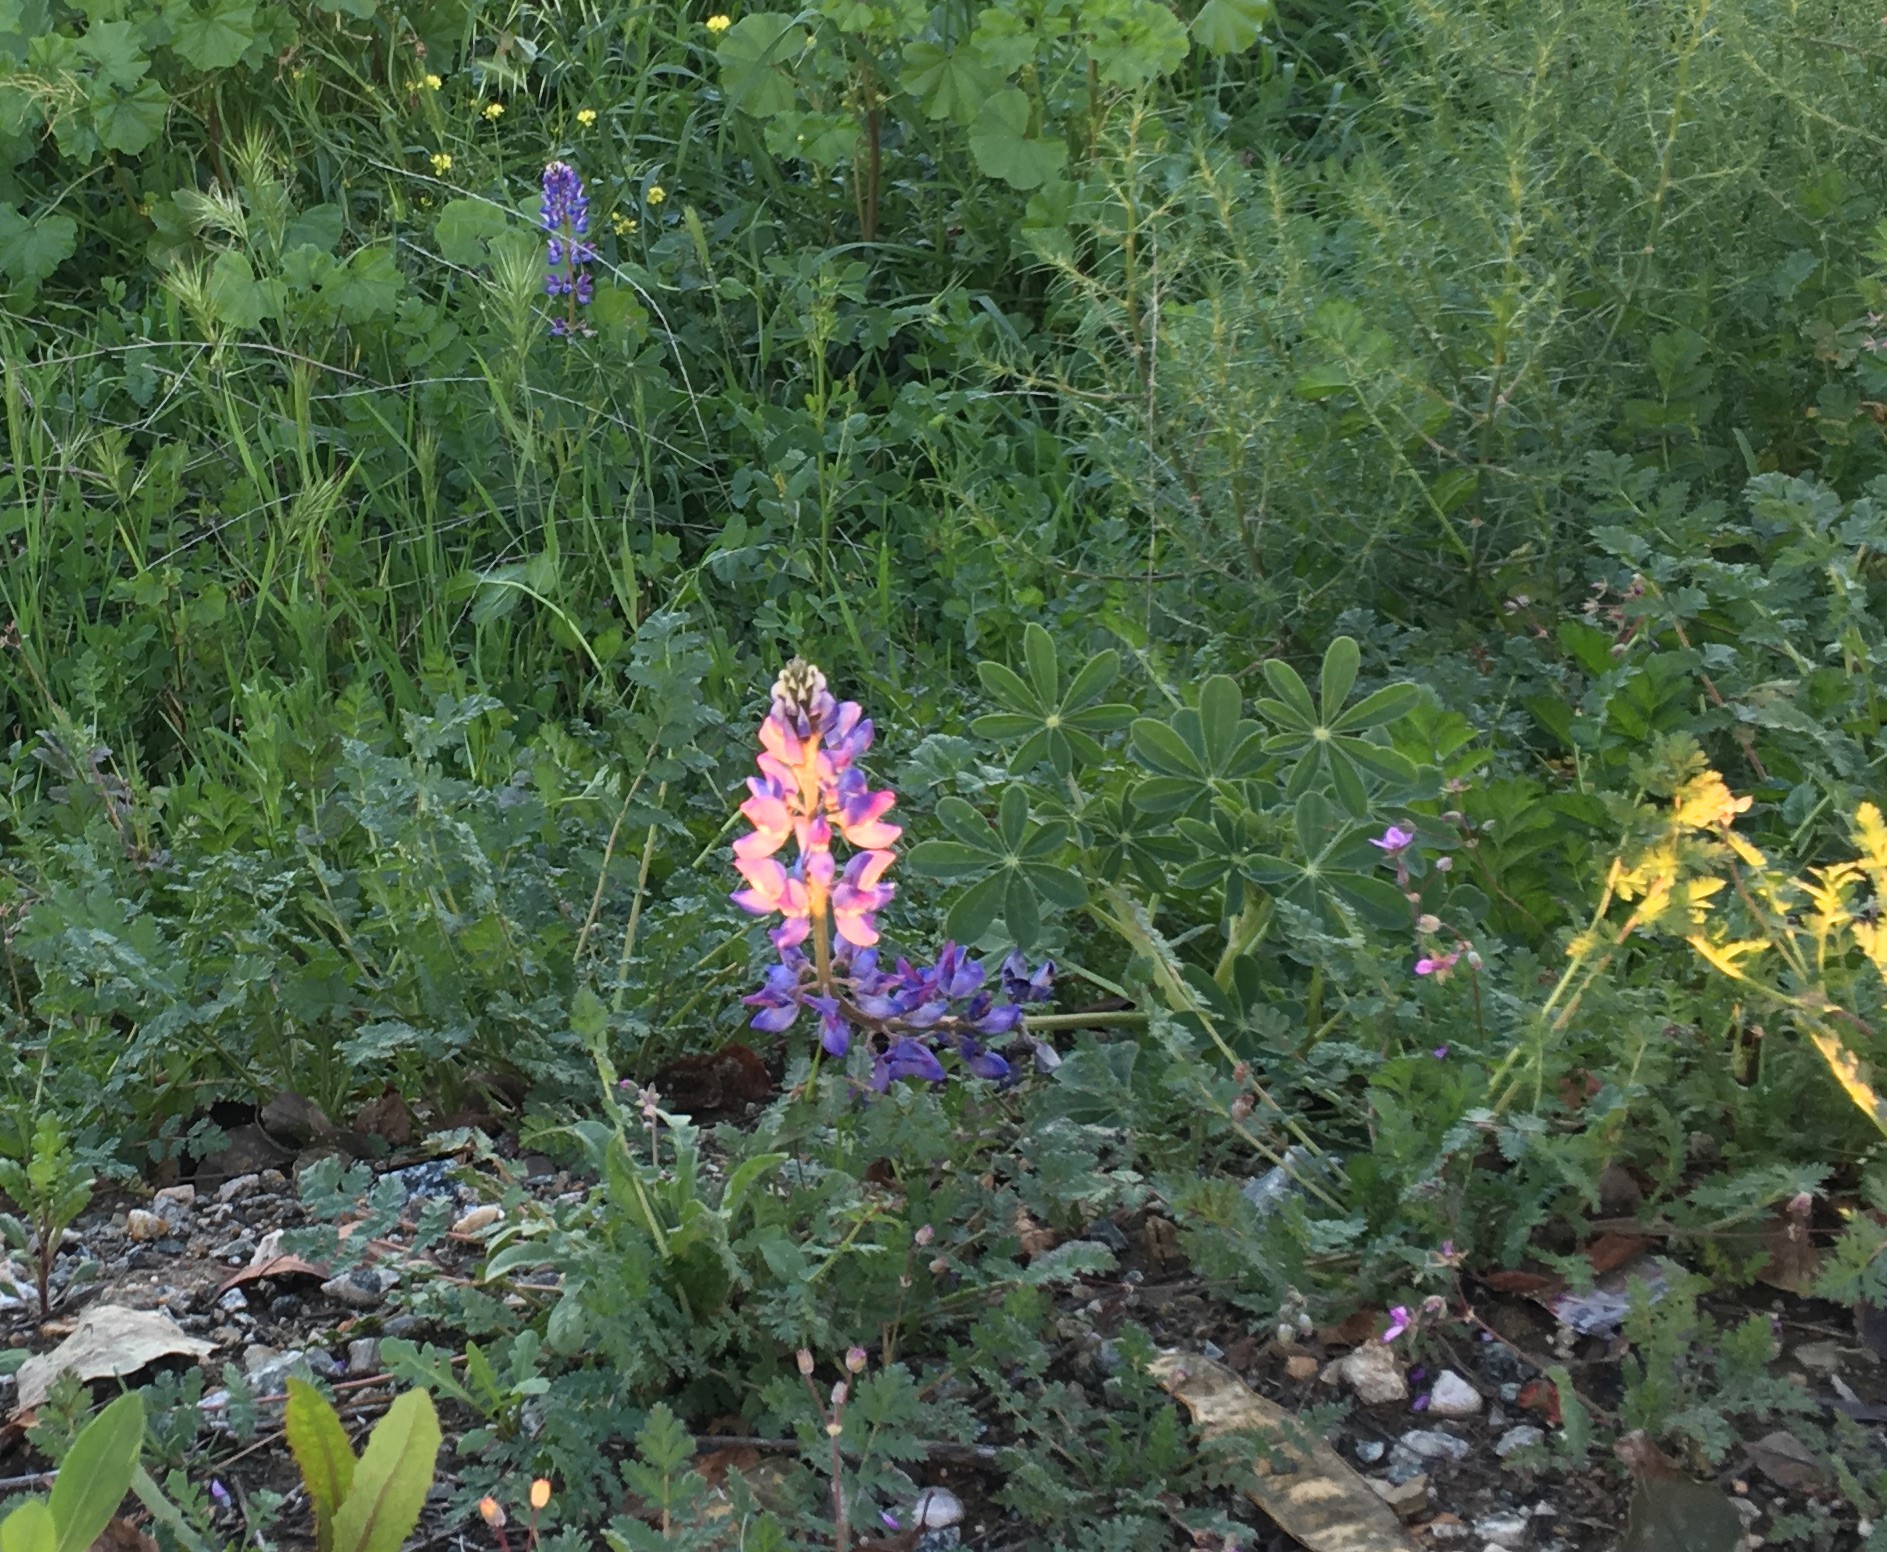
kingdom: Plantae
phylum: Tracheophyta
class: Magnoliopsida
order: Fabales
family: Fabaceae
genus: Lupinus
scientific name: Lupinus succulentus
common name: Arroyo lupine
